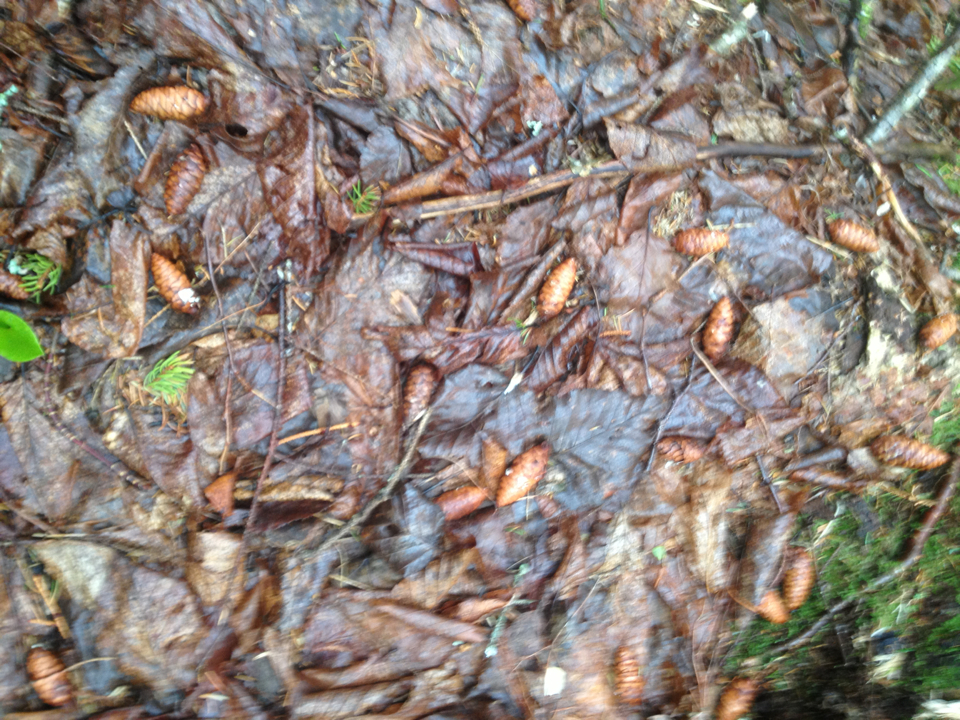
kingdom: Plantae
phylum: Tracheophyta
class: Pinopsida
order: Pinales
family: Pinaceae
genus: Picea
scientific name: Picea rubens
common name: Red spruce
